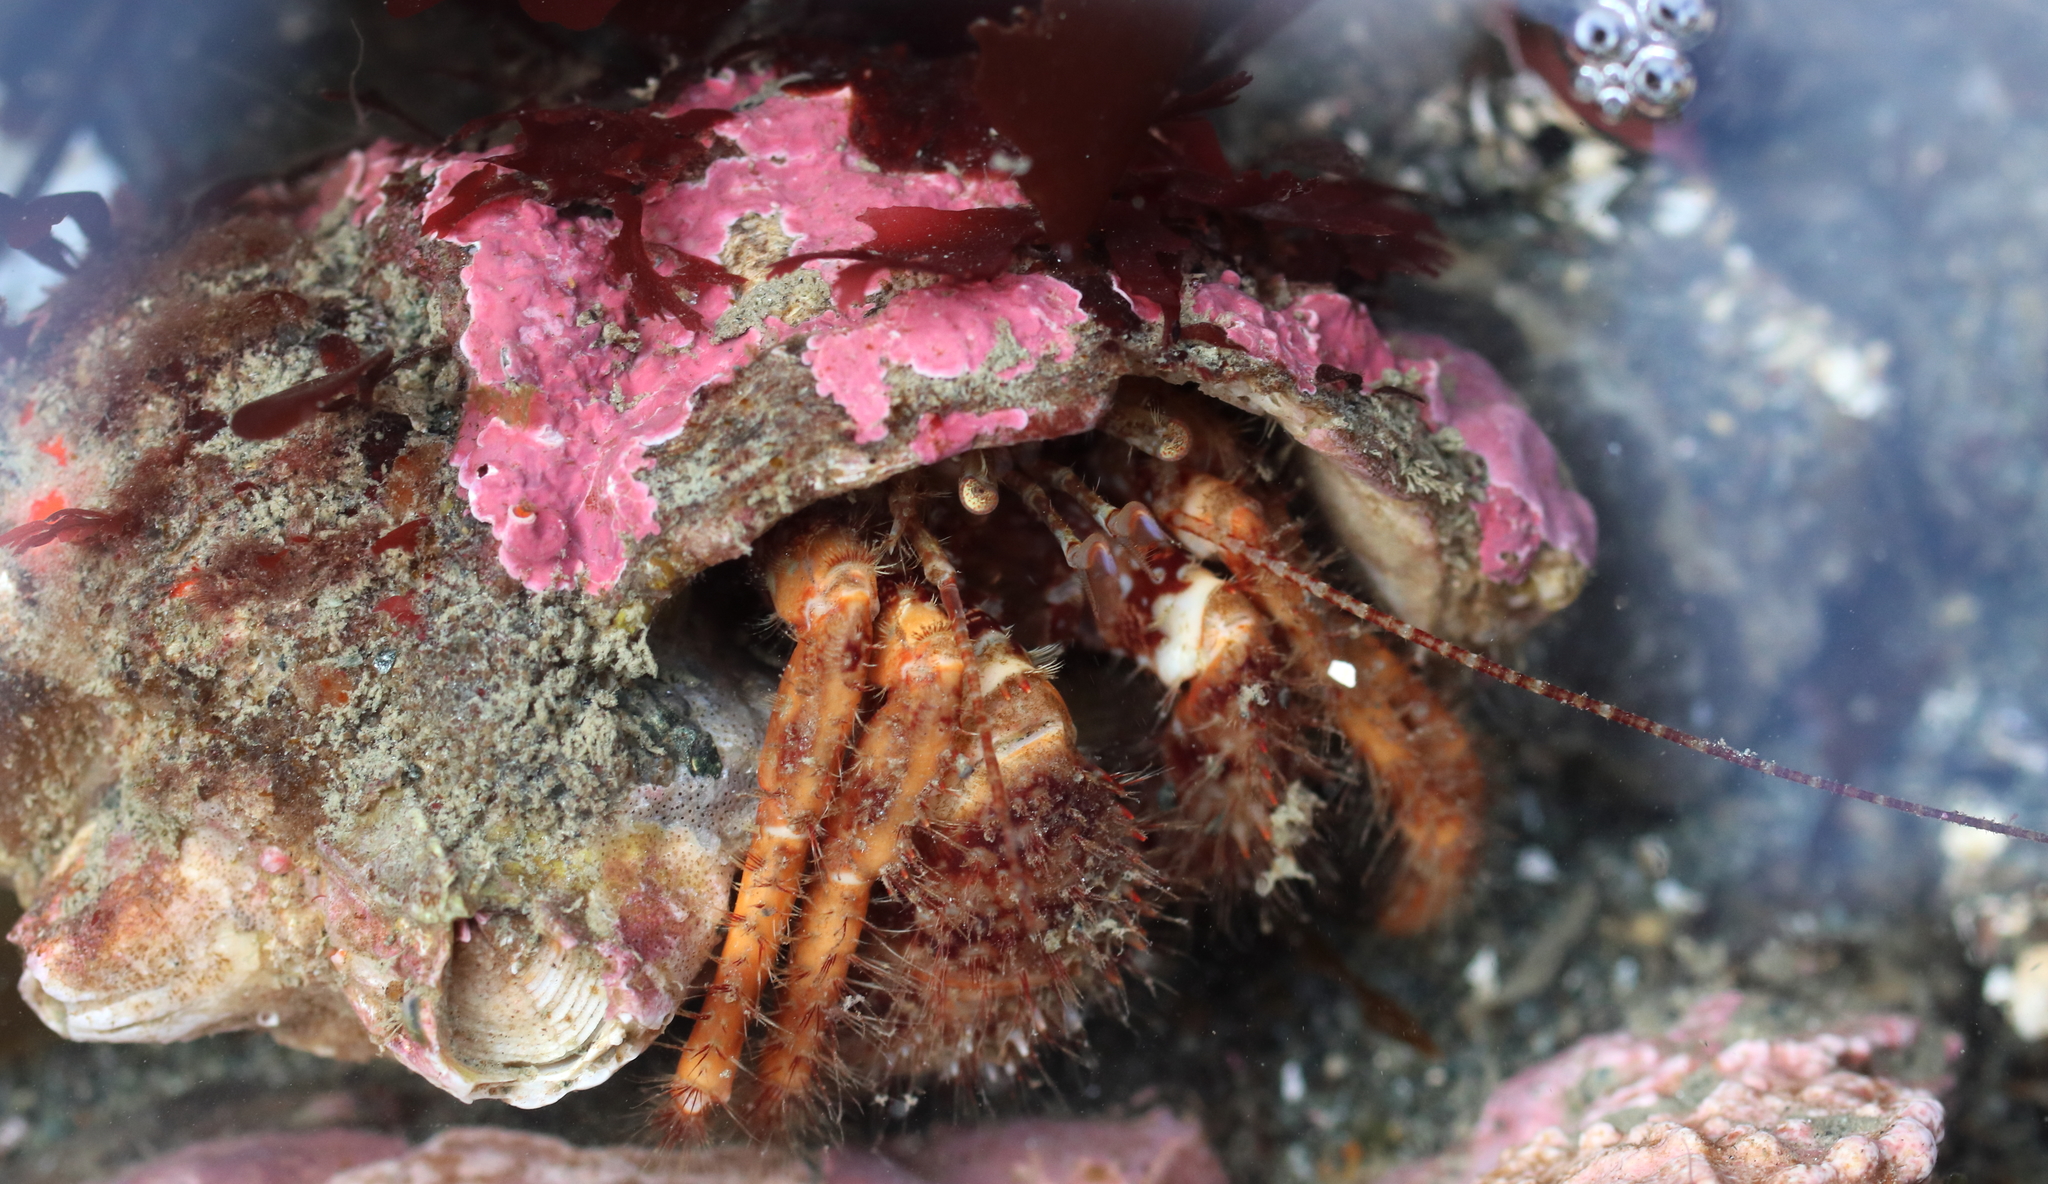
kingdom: Animalia
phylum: Arthropoda
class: Malacostraca
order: Decapoda
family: Paguridae
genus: Pagurus
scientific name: Pagurus kennerlyi
